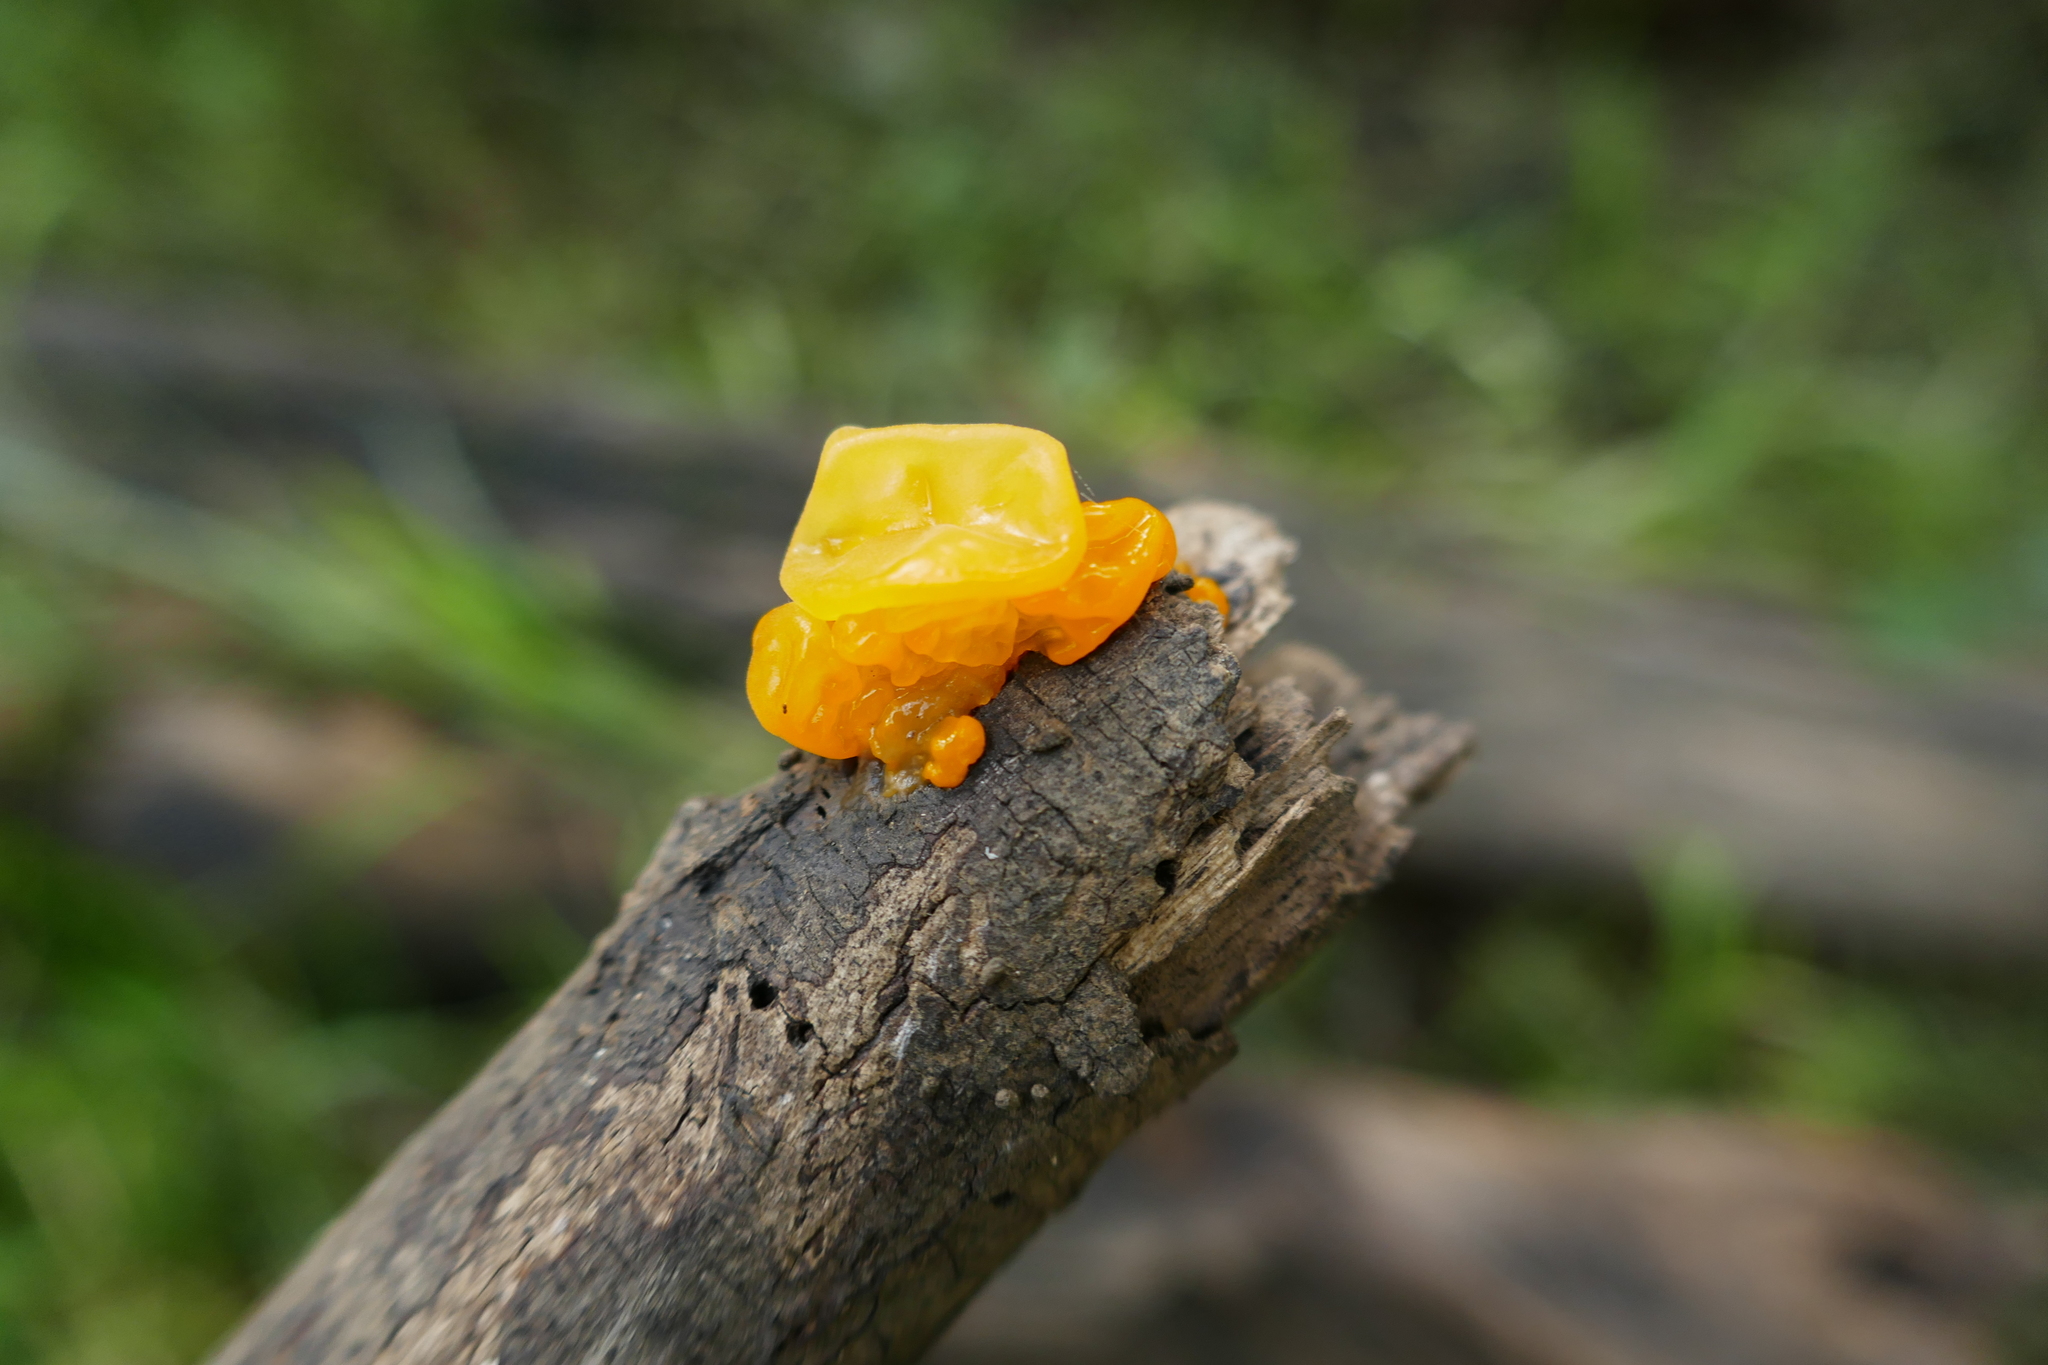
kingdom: Fungi
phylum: Basidiomycota
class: Tremellomycetes
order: Tremellales
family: Tremellaceae
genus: Tremella
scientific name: Tremella mesenterica
